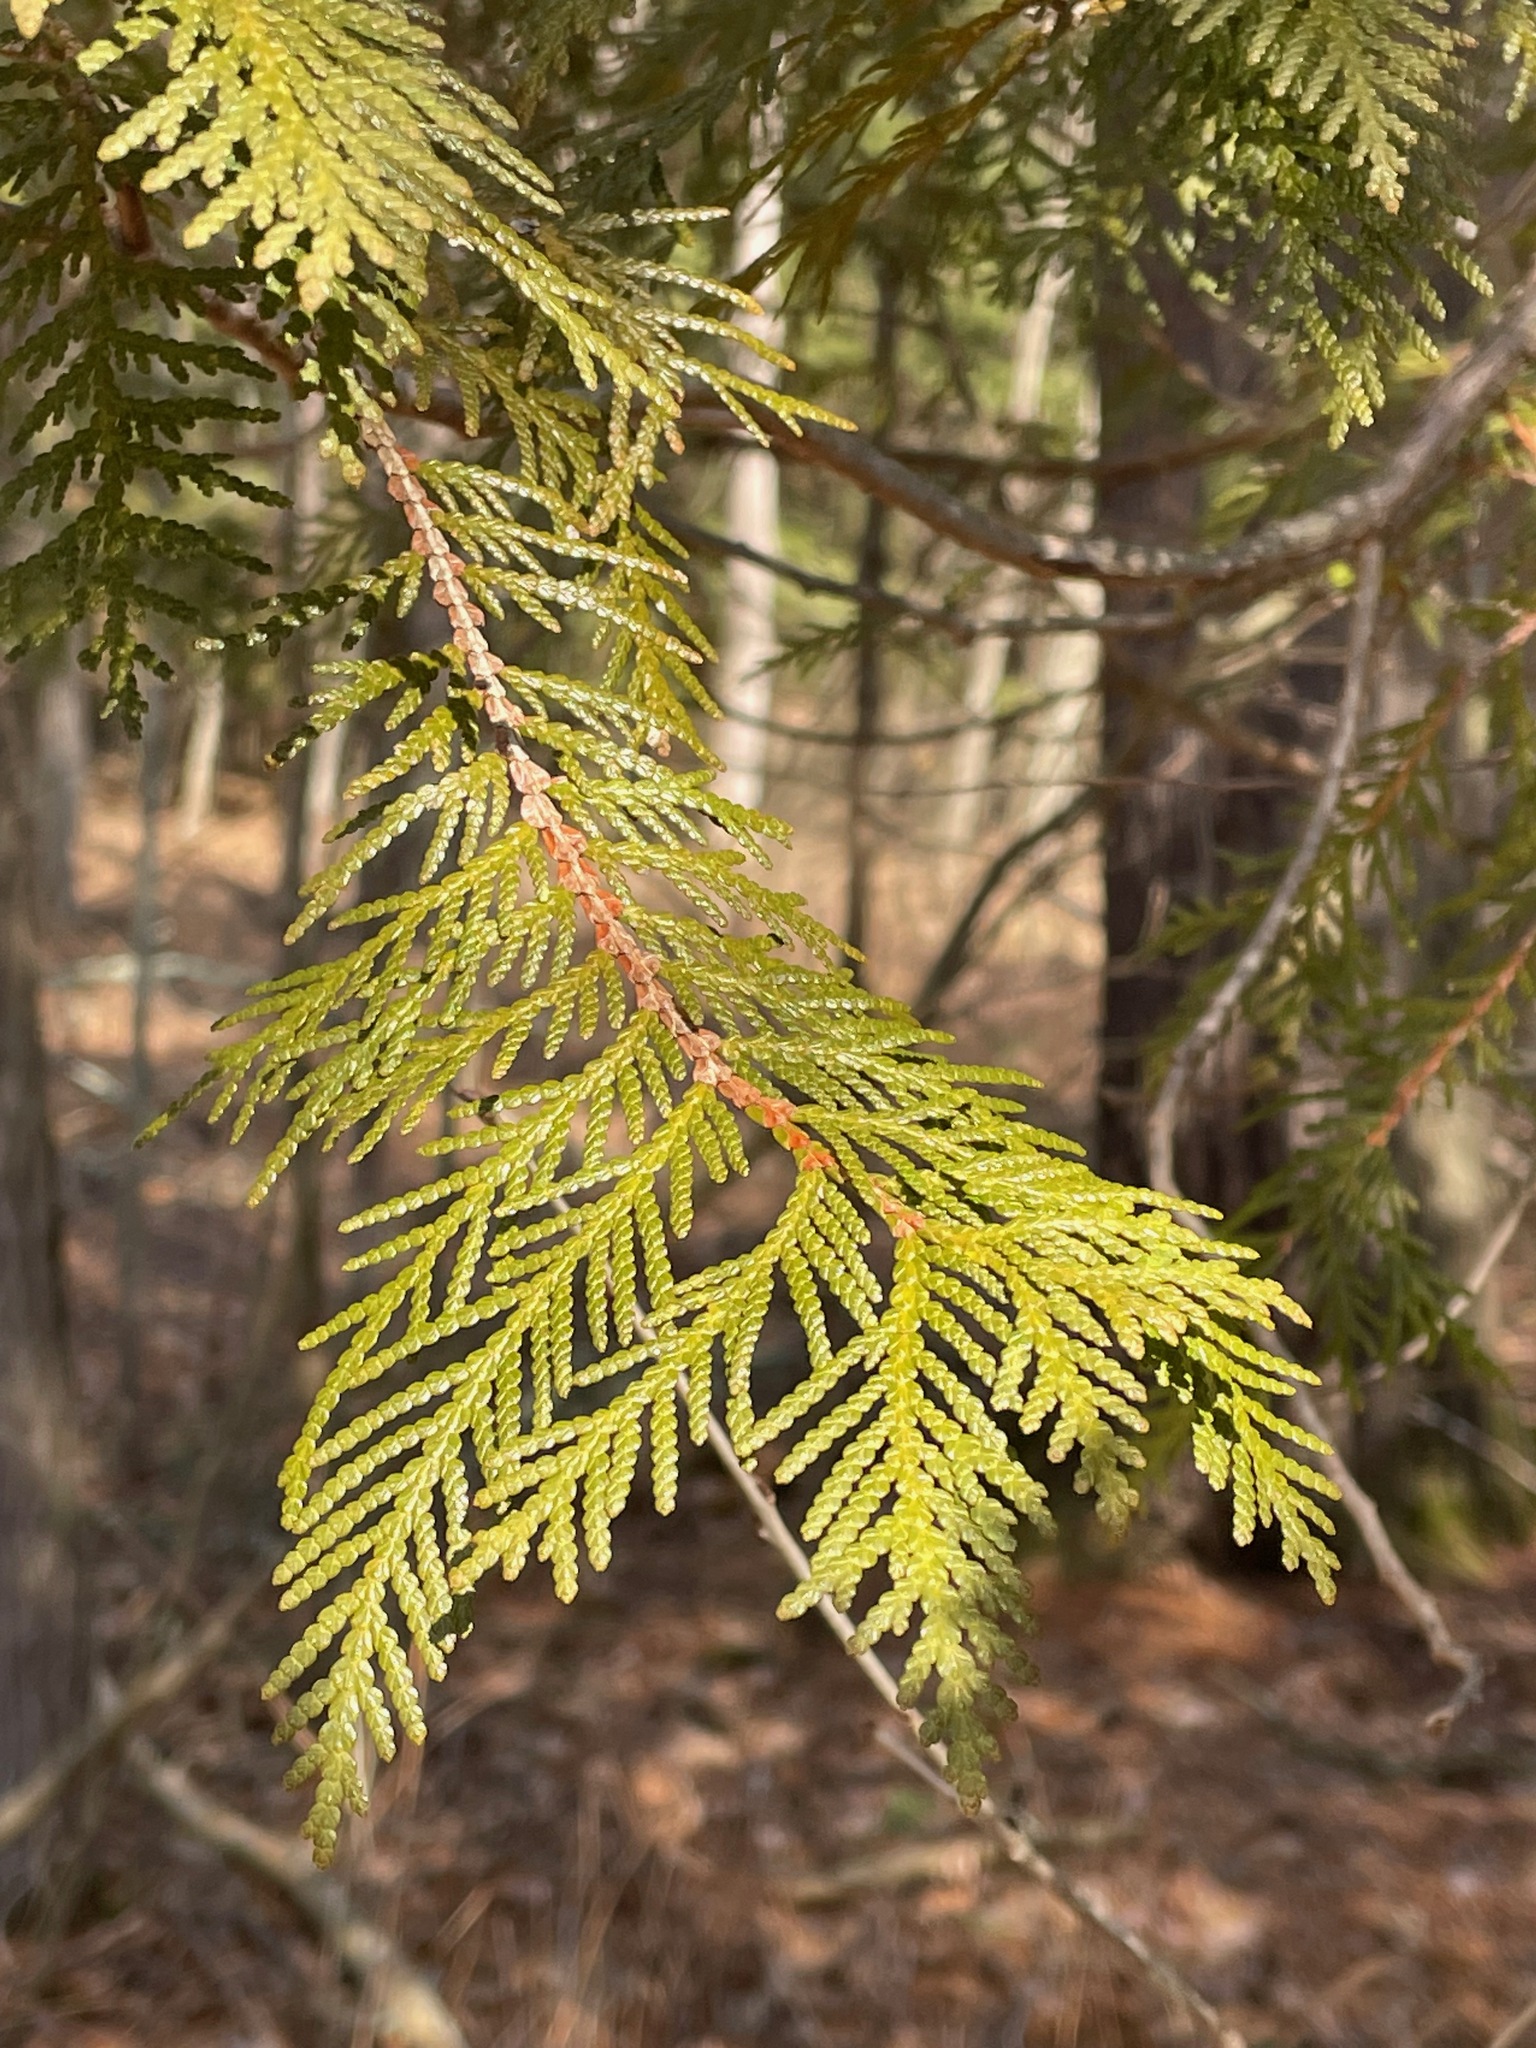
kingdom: Plantae
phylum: Tracheophyta
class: Pinopsida
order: Pinales
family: Cupressaceae
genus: Thuja
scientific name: Thuja occidentalis
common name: Northern white-cedar
